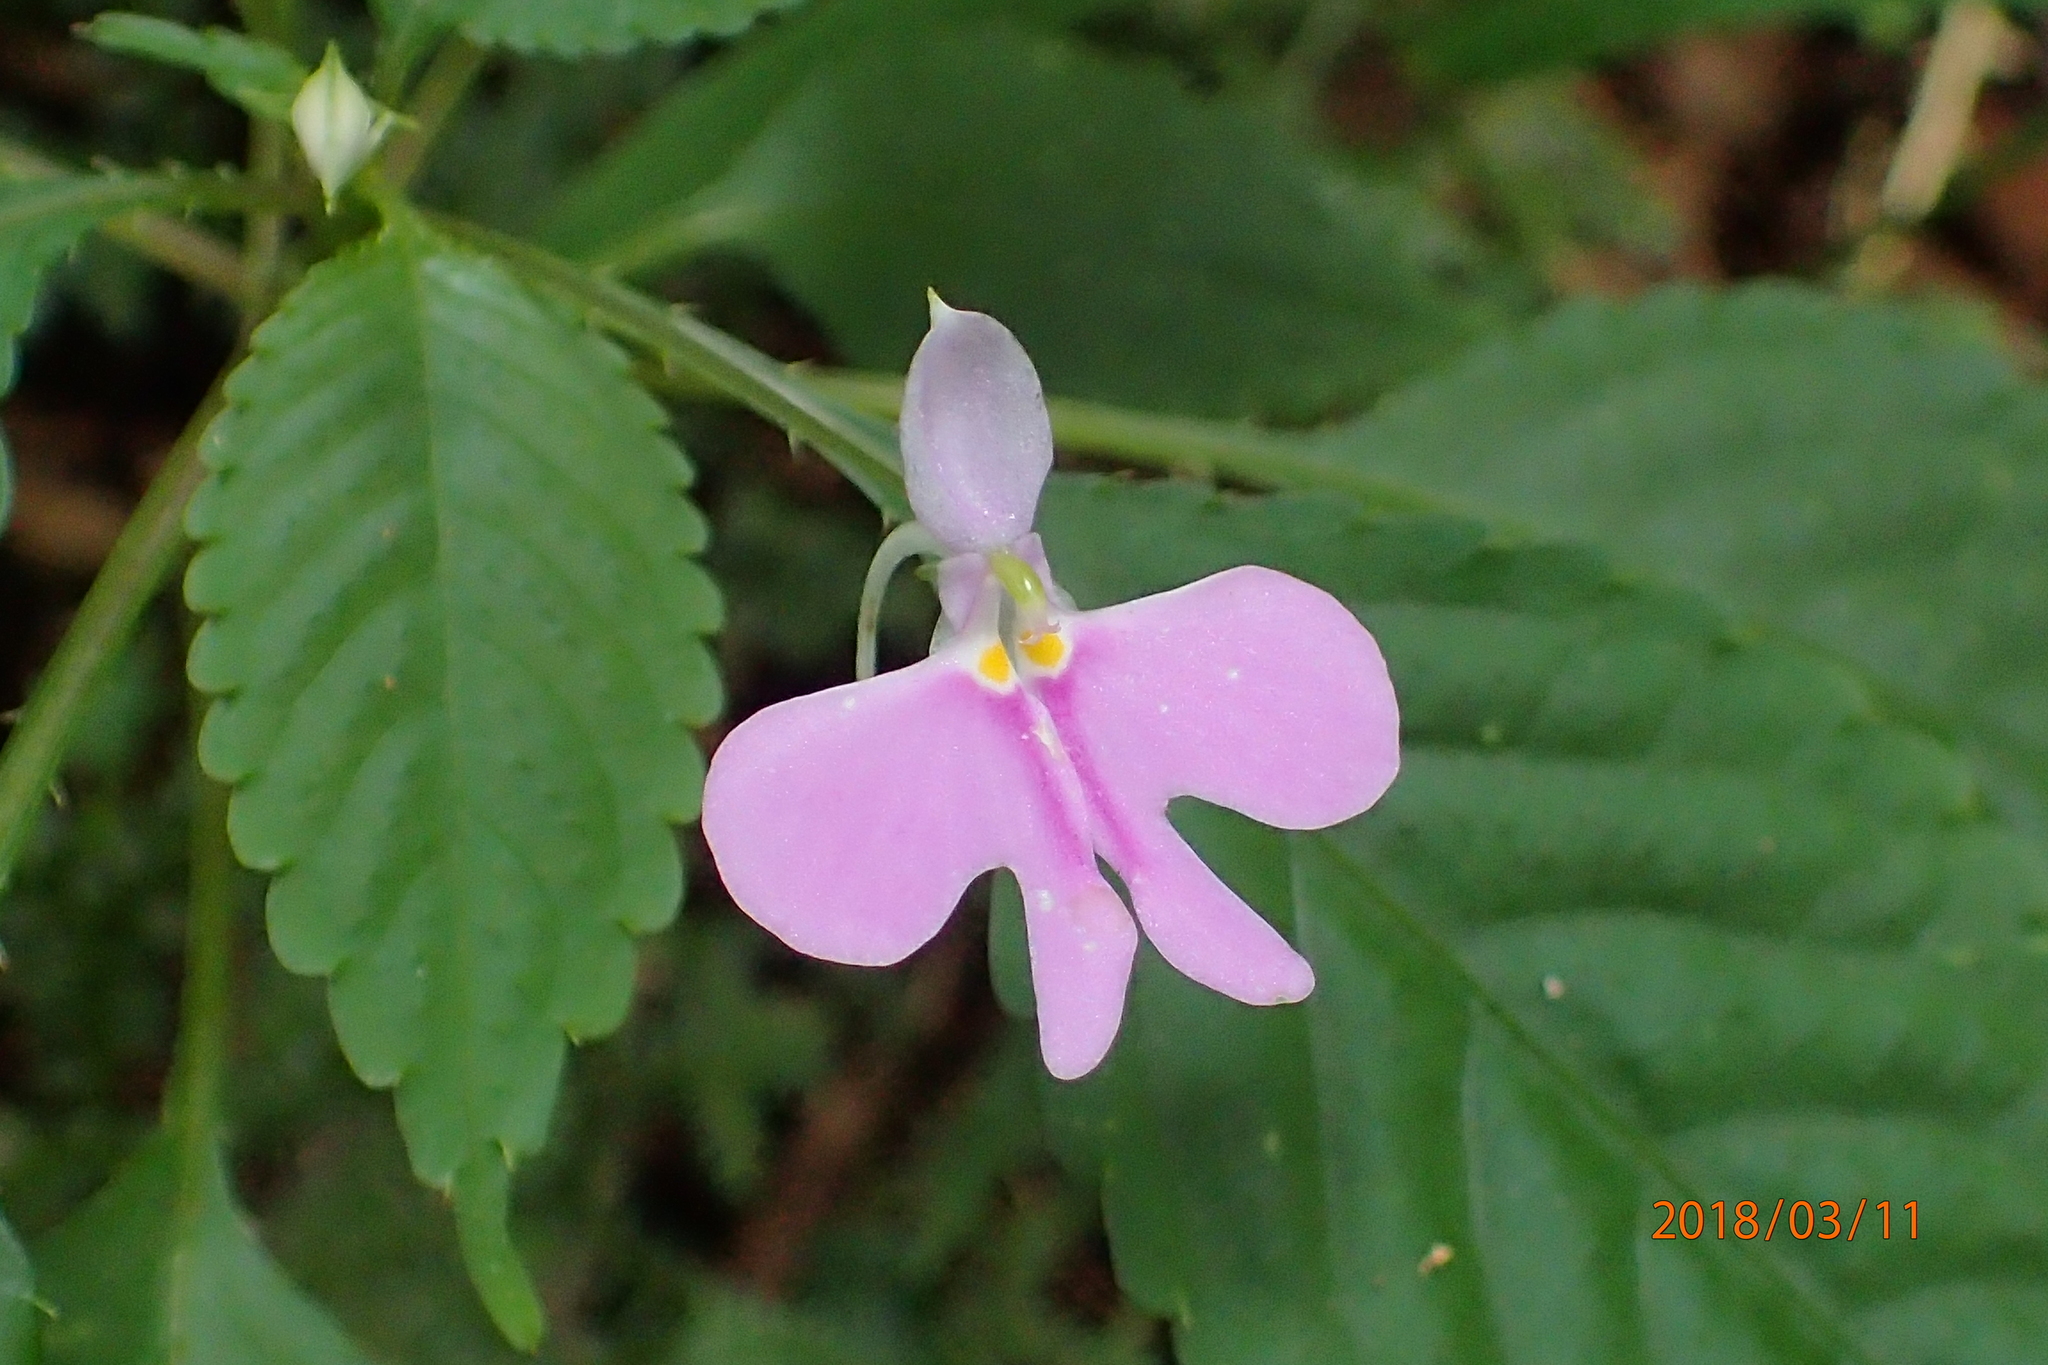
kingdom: Plantae
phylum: Tracheophyta
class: Magnoliopsida
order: Ericales
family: Balsaminaceae
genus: Impatiens
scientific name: Impatiens hochstetteri
